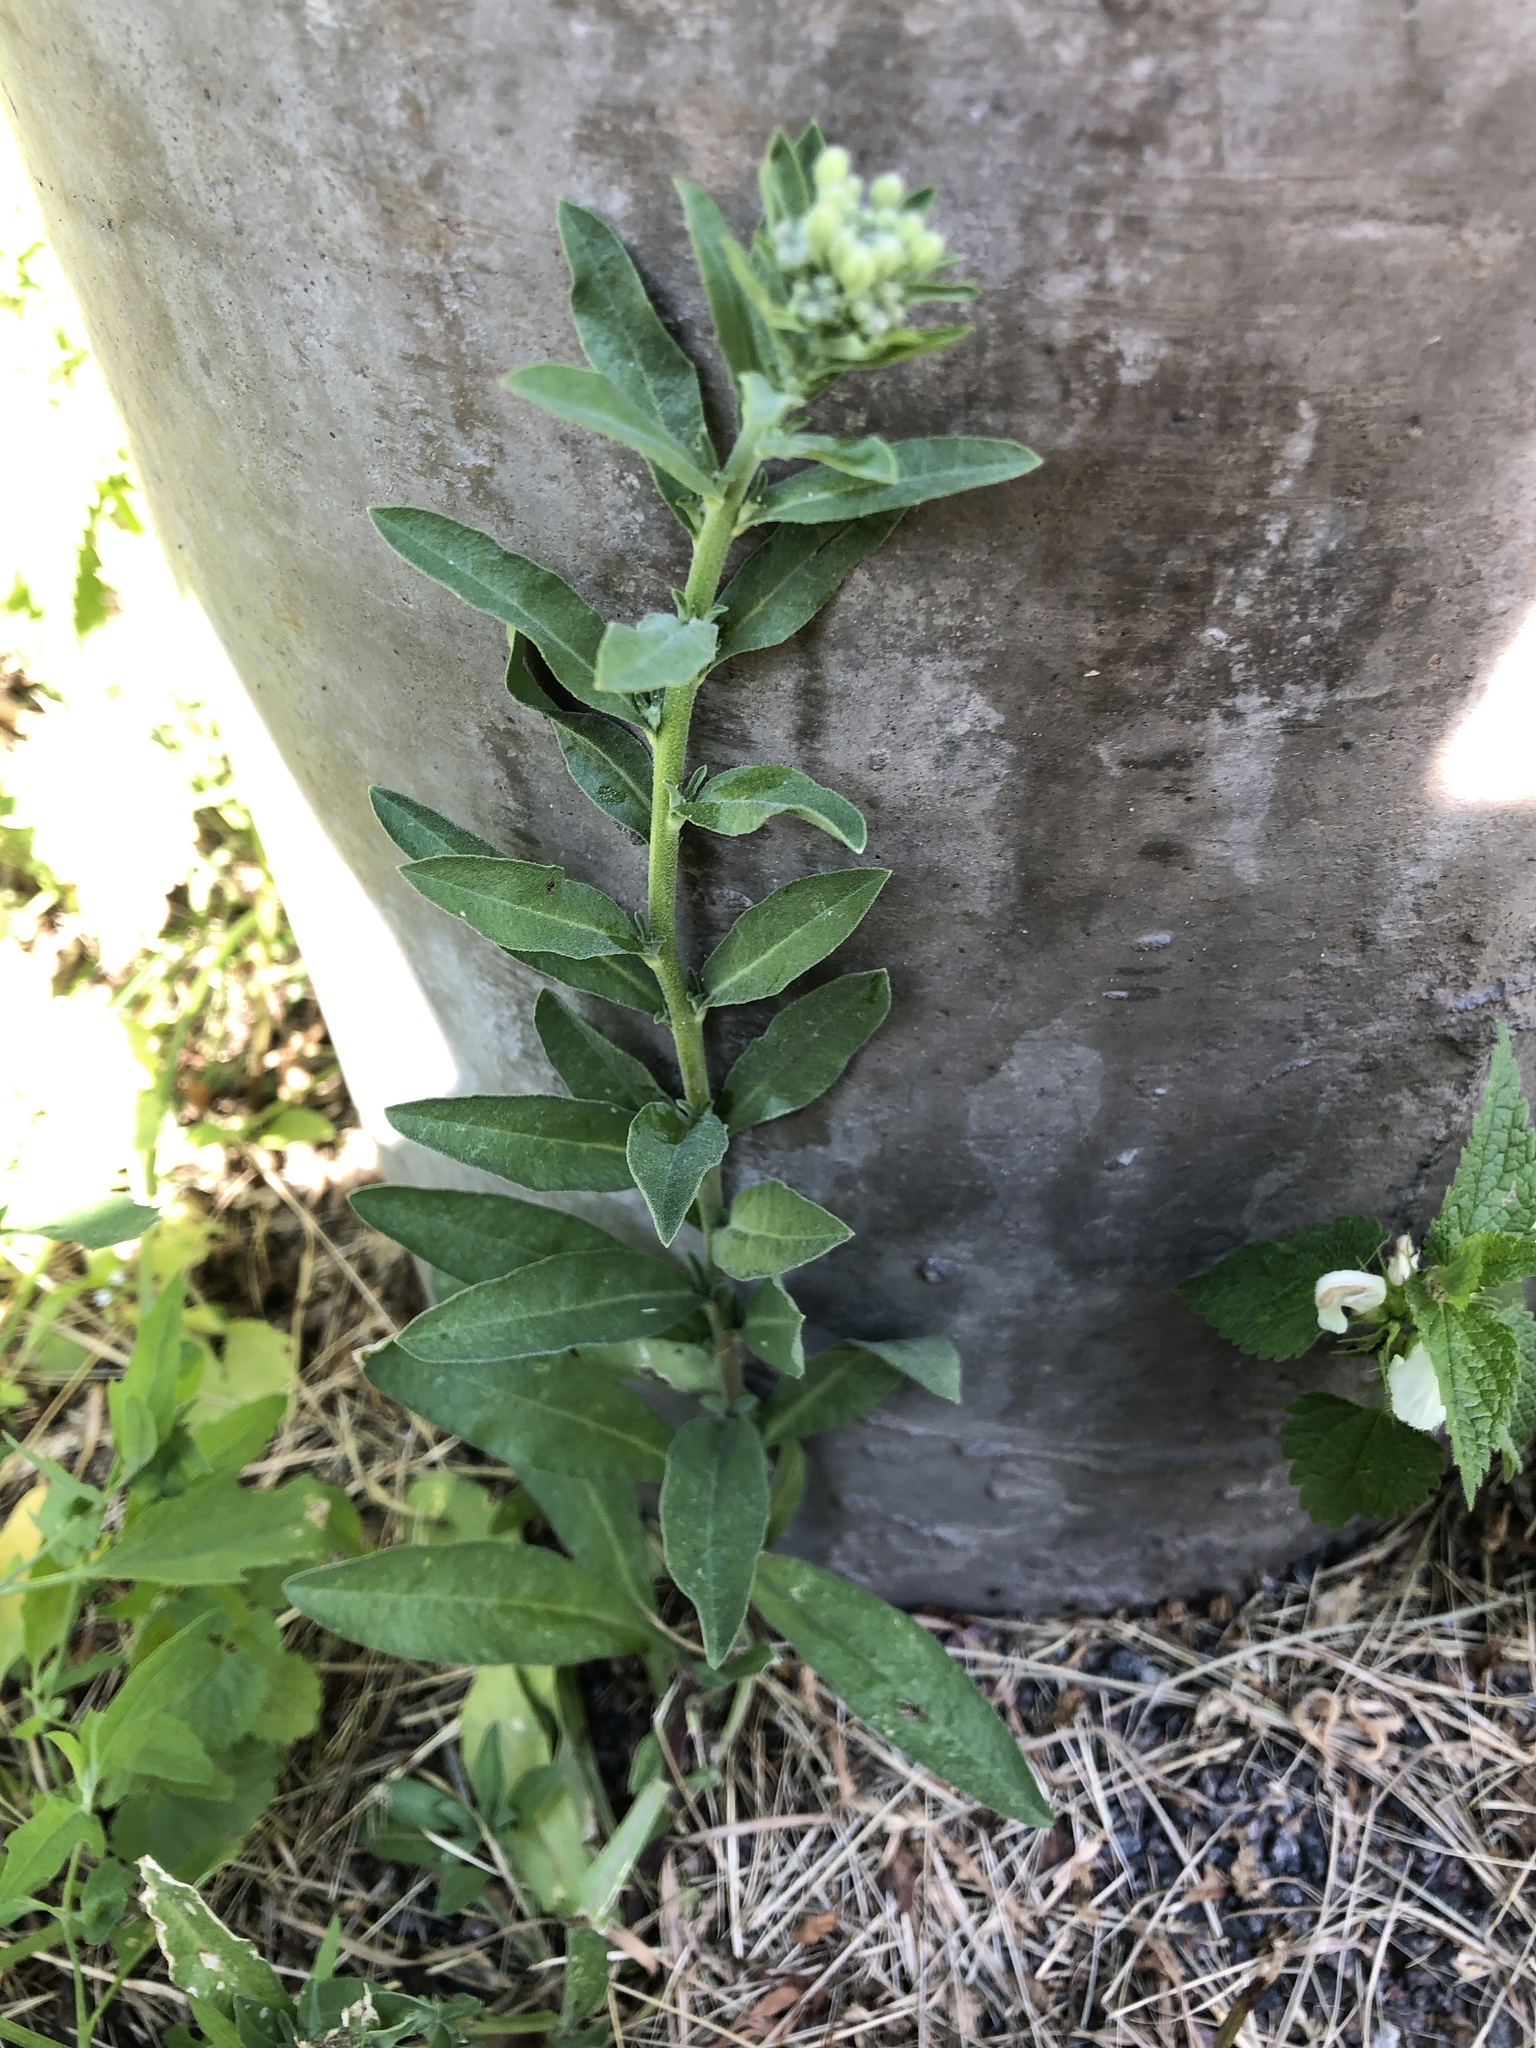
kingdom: Plantae
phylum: Tracheophyta
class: Magnoliopsida
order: Brassicales
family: Brassicaceae
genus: Berteroa
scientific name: Berteroa incana
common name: Hoary alison
